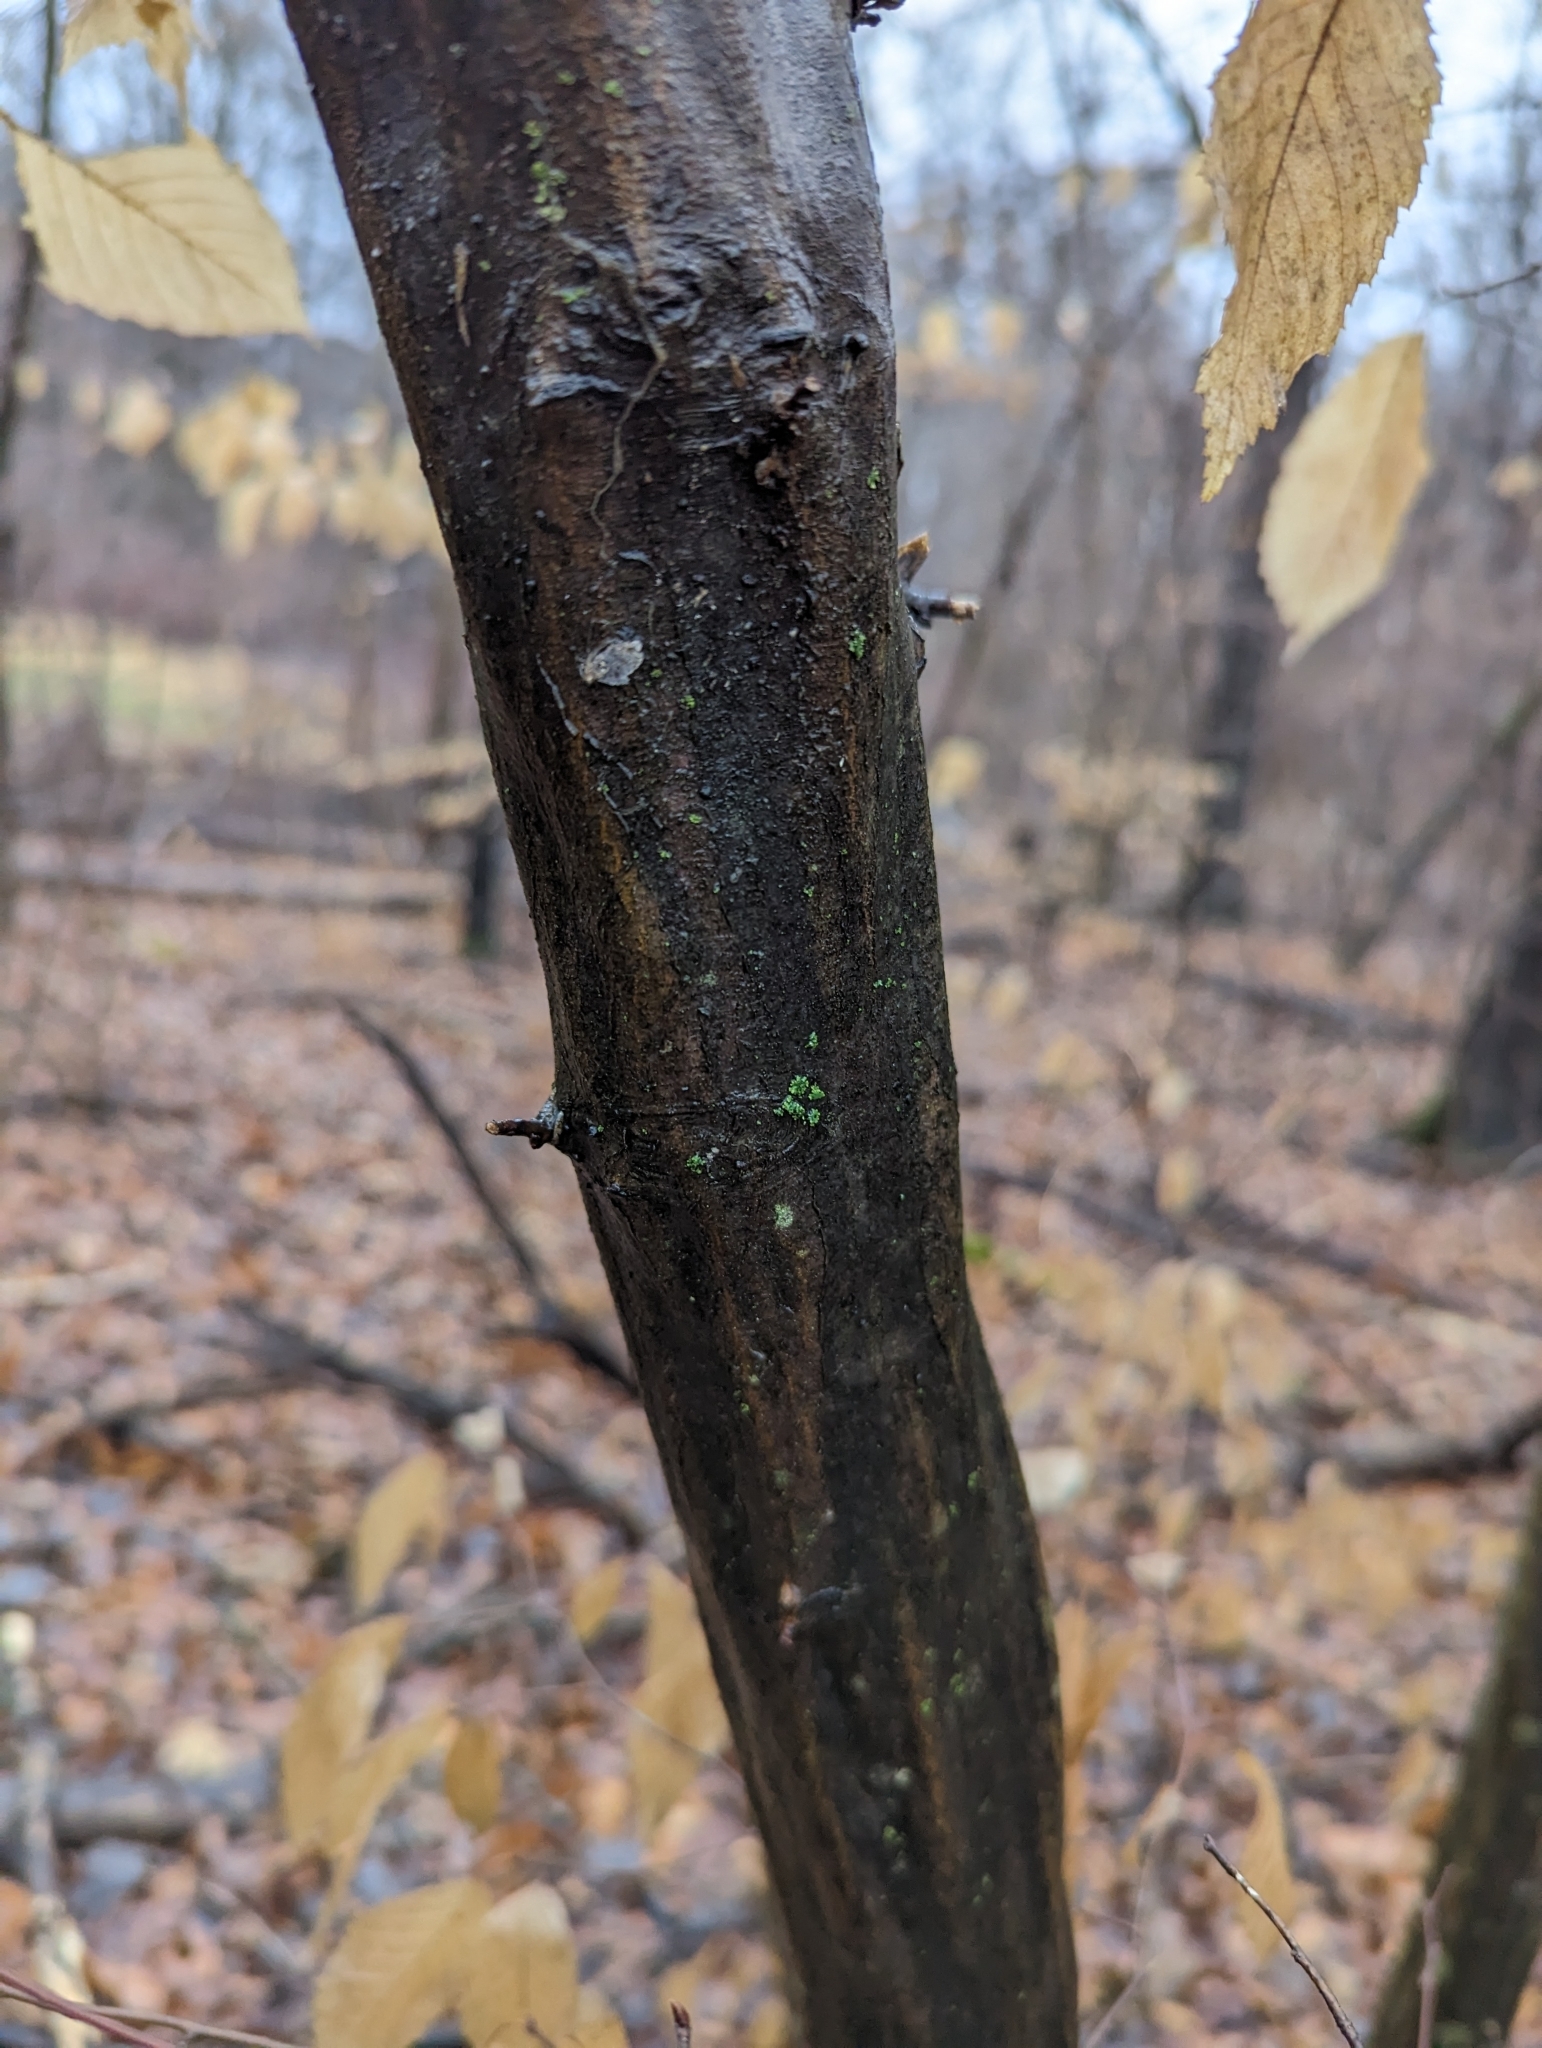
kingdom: Plantae
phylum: Tracheophyta
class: Magnoliopsida
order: Fagales
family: Betulaceae
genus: Carpinus
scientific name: Carpinus caroliniana
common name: American hornbeam
